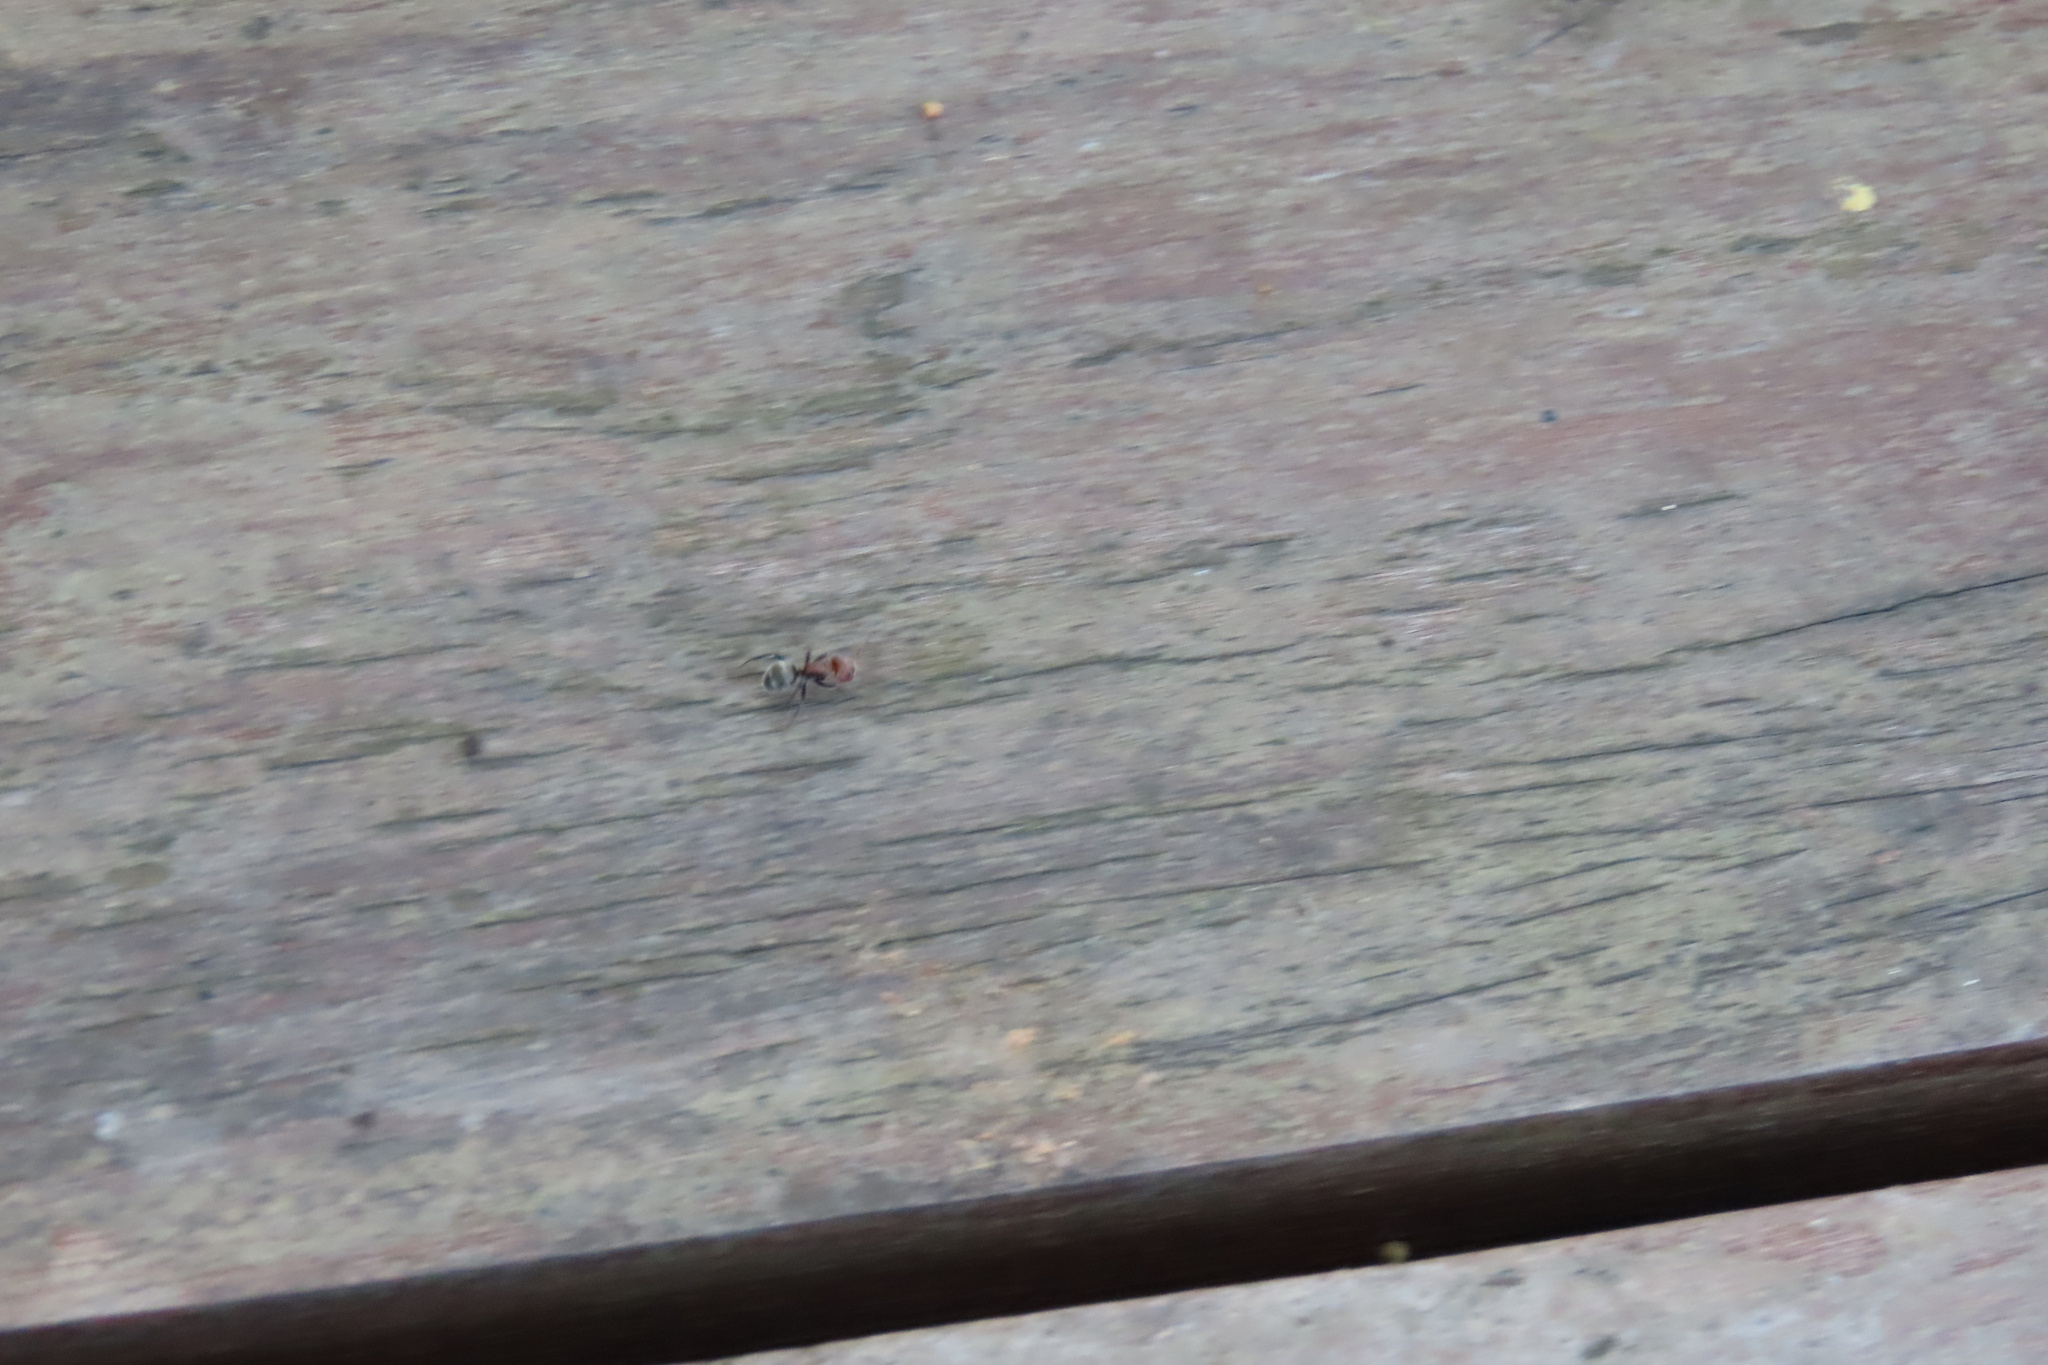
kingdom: Animalia
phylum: Arthropoda
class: Insecta
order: Hymenoptera
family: Formicidae
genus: Camponotus
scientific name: Camponotus planatus
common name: Compact carpenter ant
